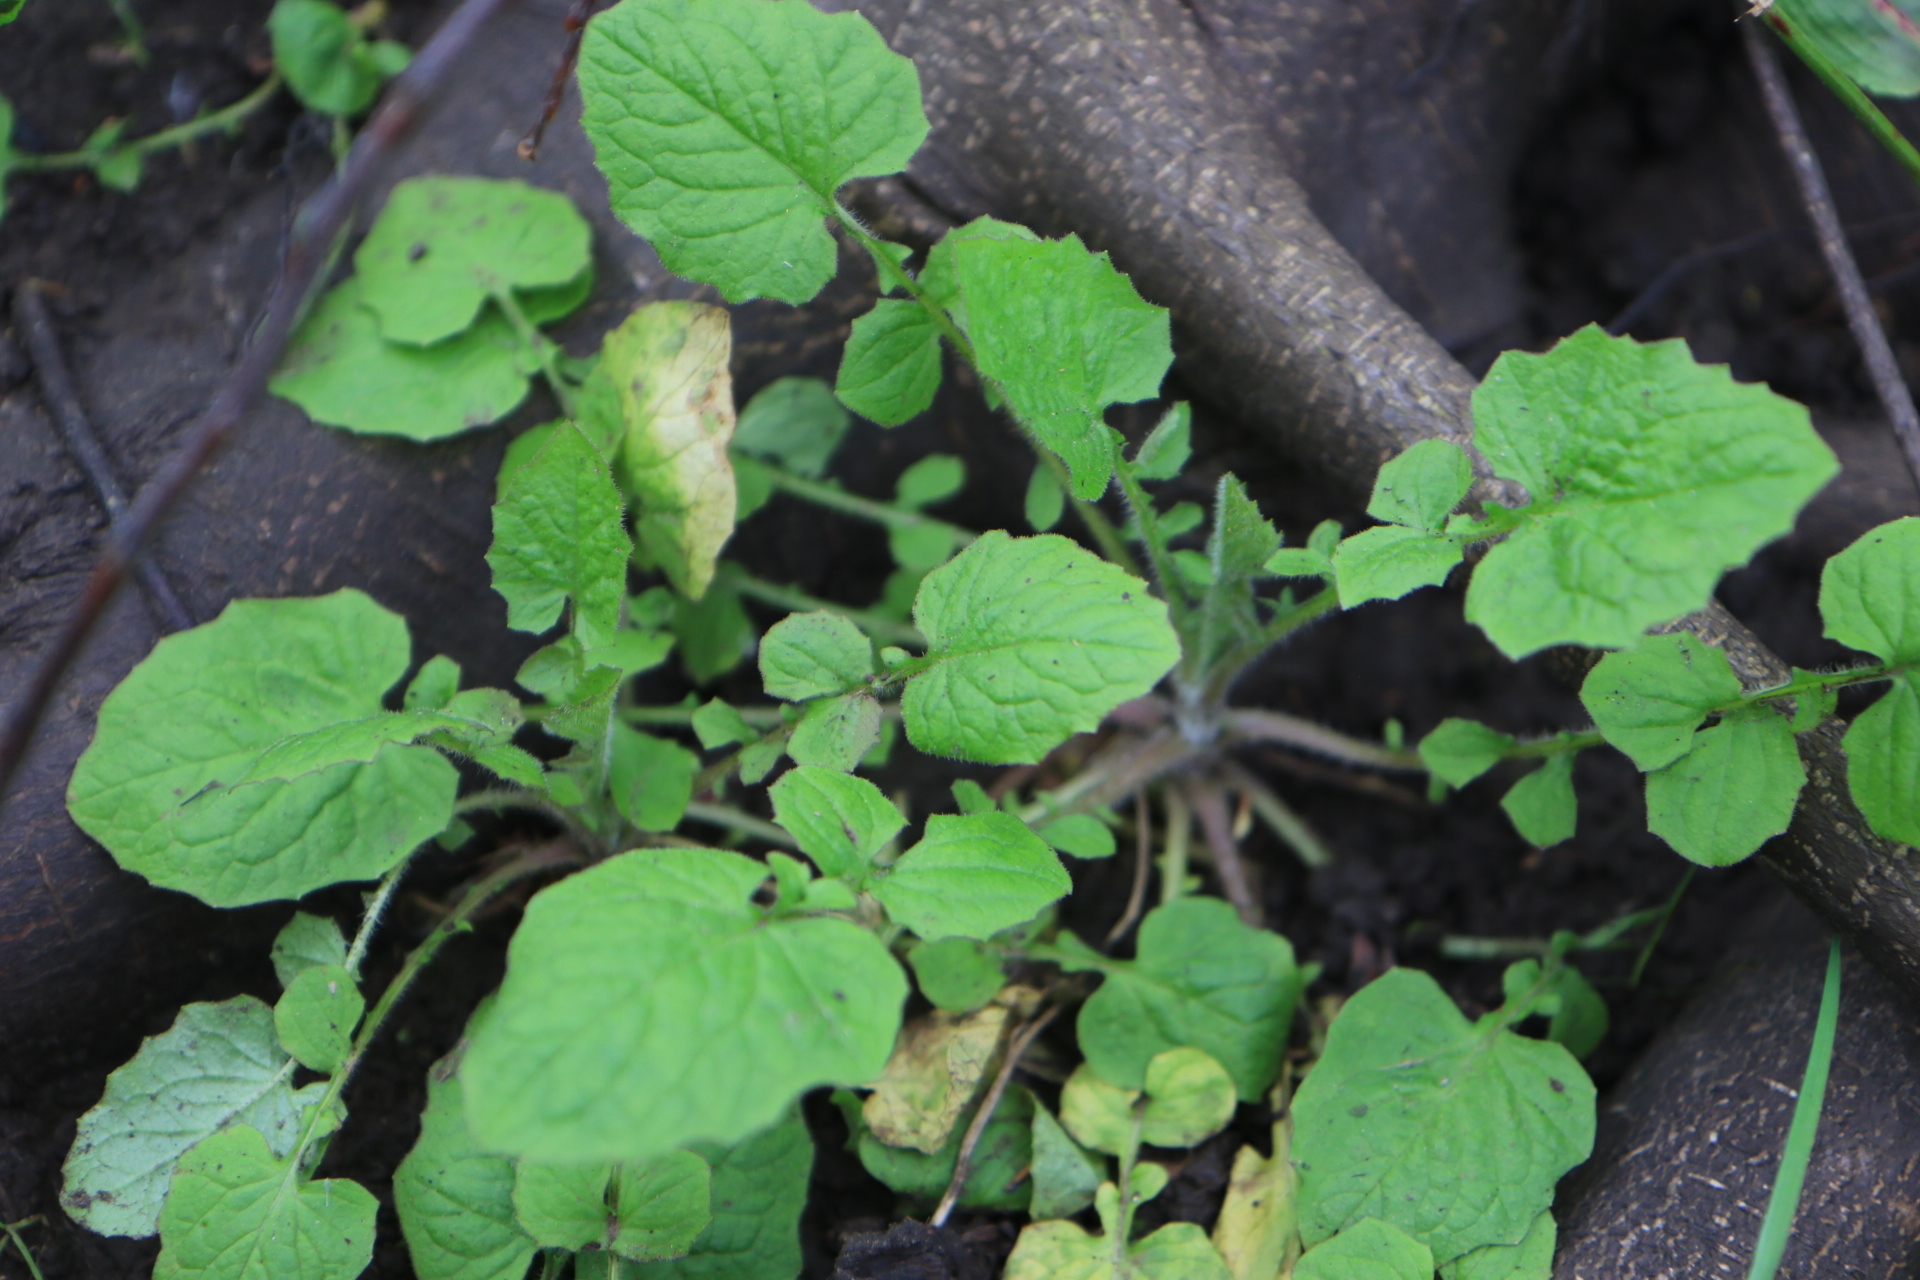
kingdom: Plantae
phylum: Tracheophyta
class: Magnoliopsida
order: Asterales
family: Asteraceae
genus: Lapsana
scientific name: Lapsana communis
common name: Nipplewort
